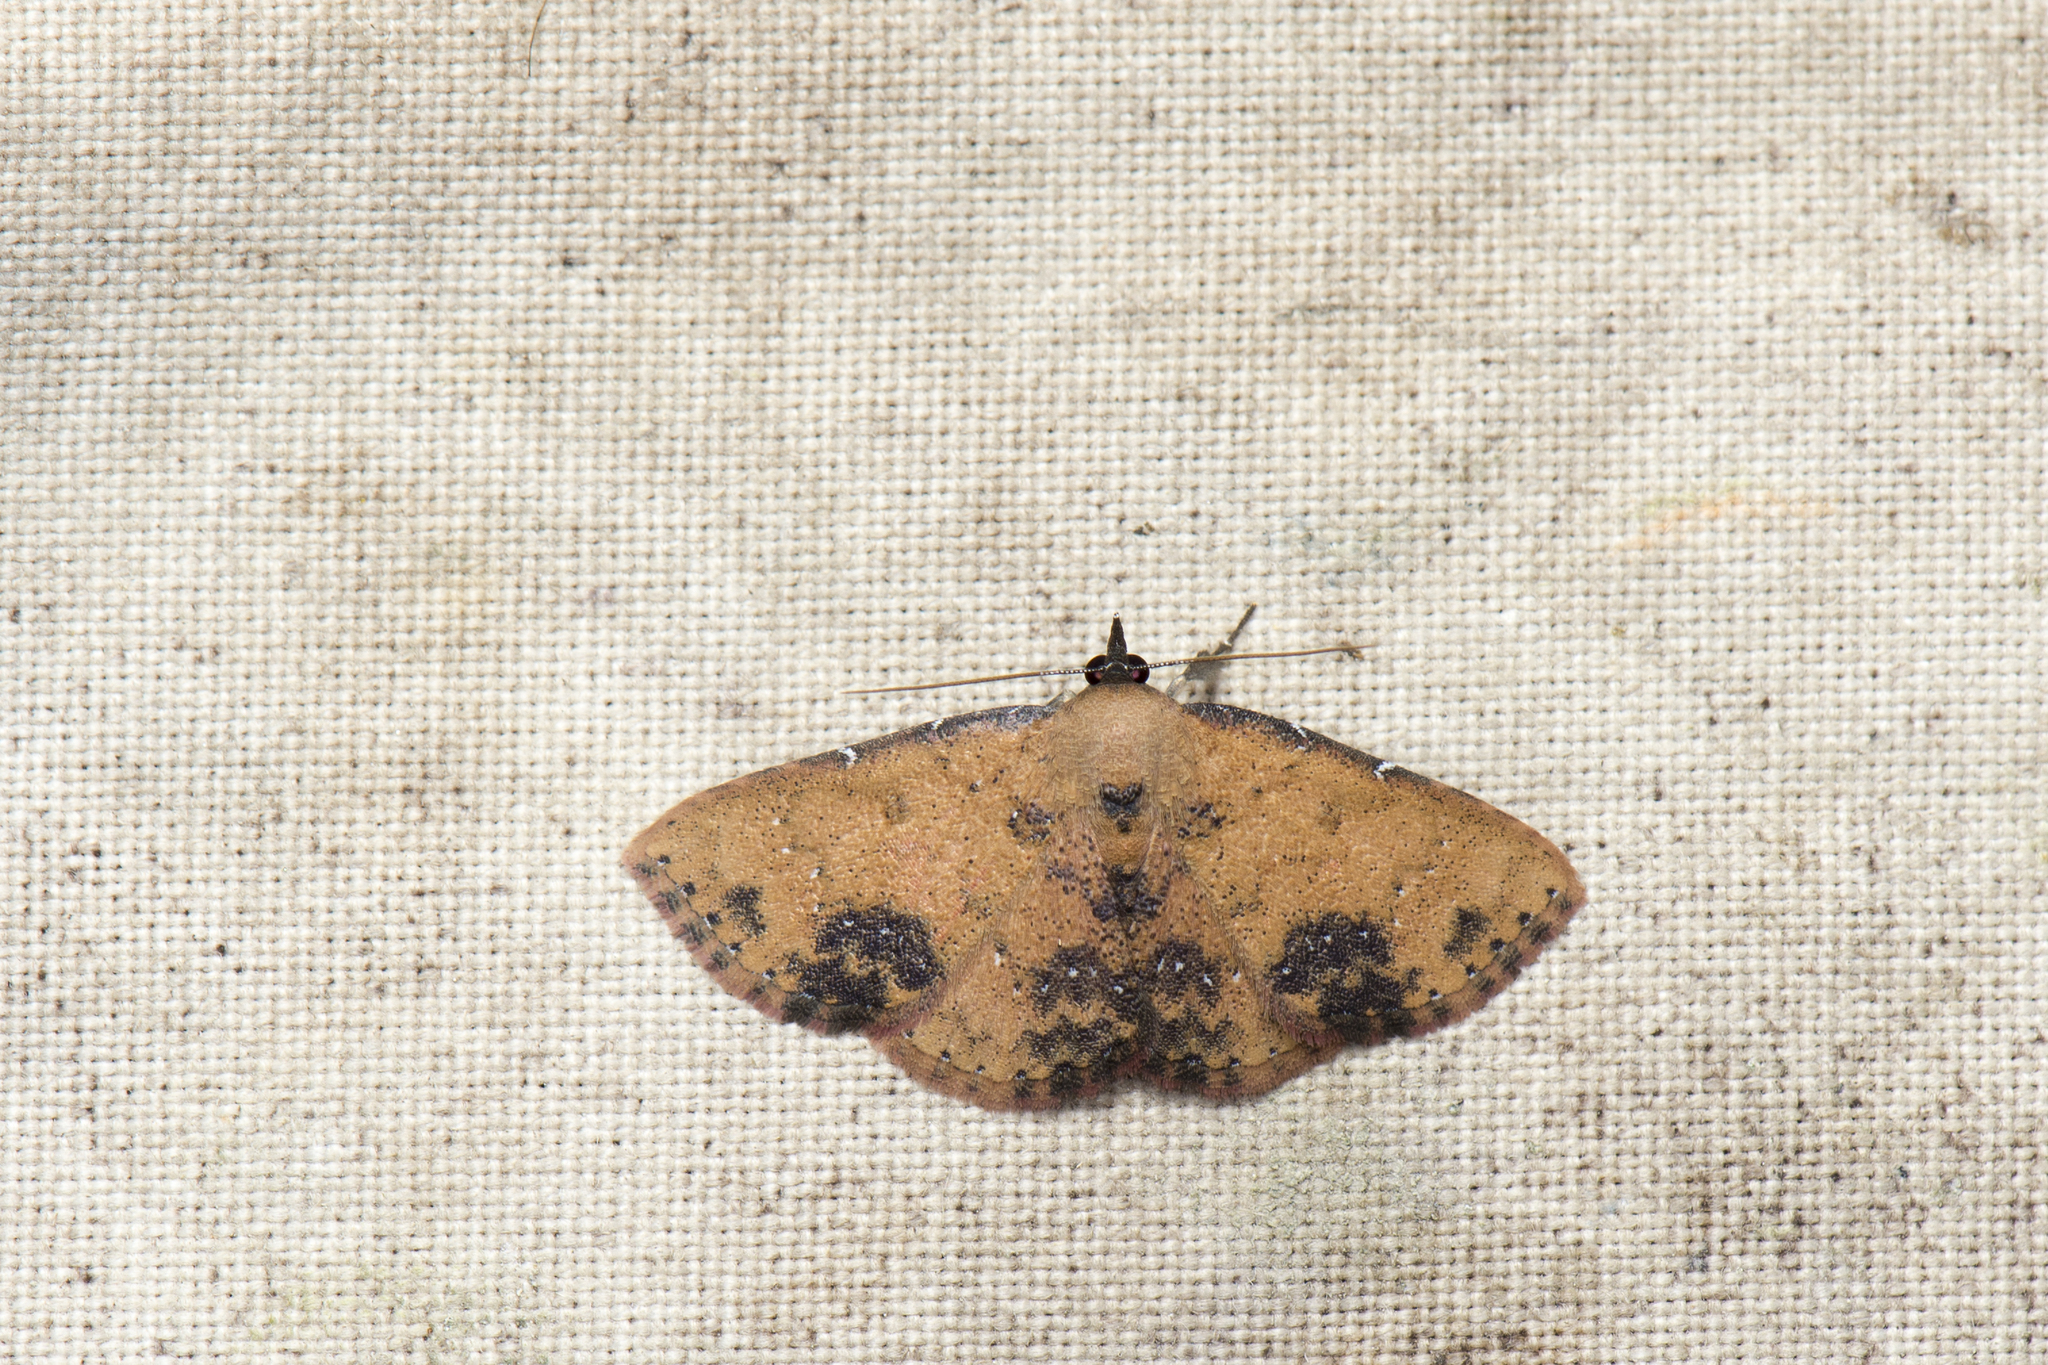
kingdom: Animalia
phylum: Arthropoda
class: Insecta
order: Lepidoptera
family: Erebidae
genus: Corgatha
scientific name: Corgatha tornalis
